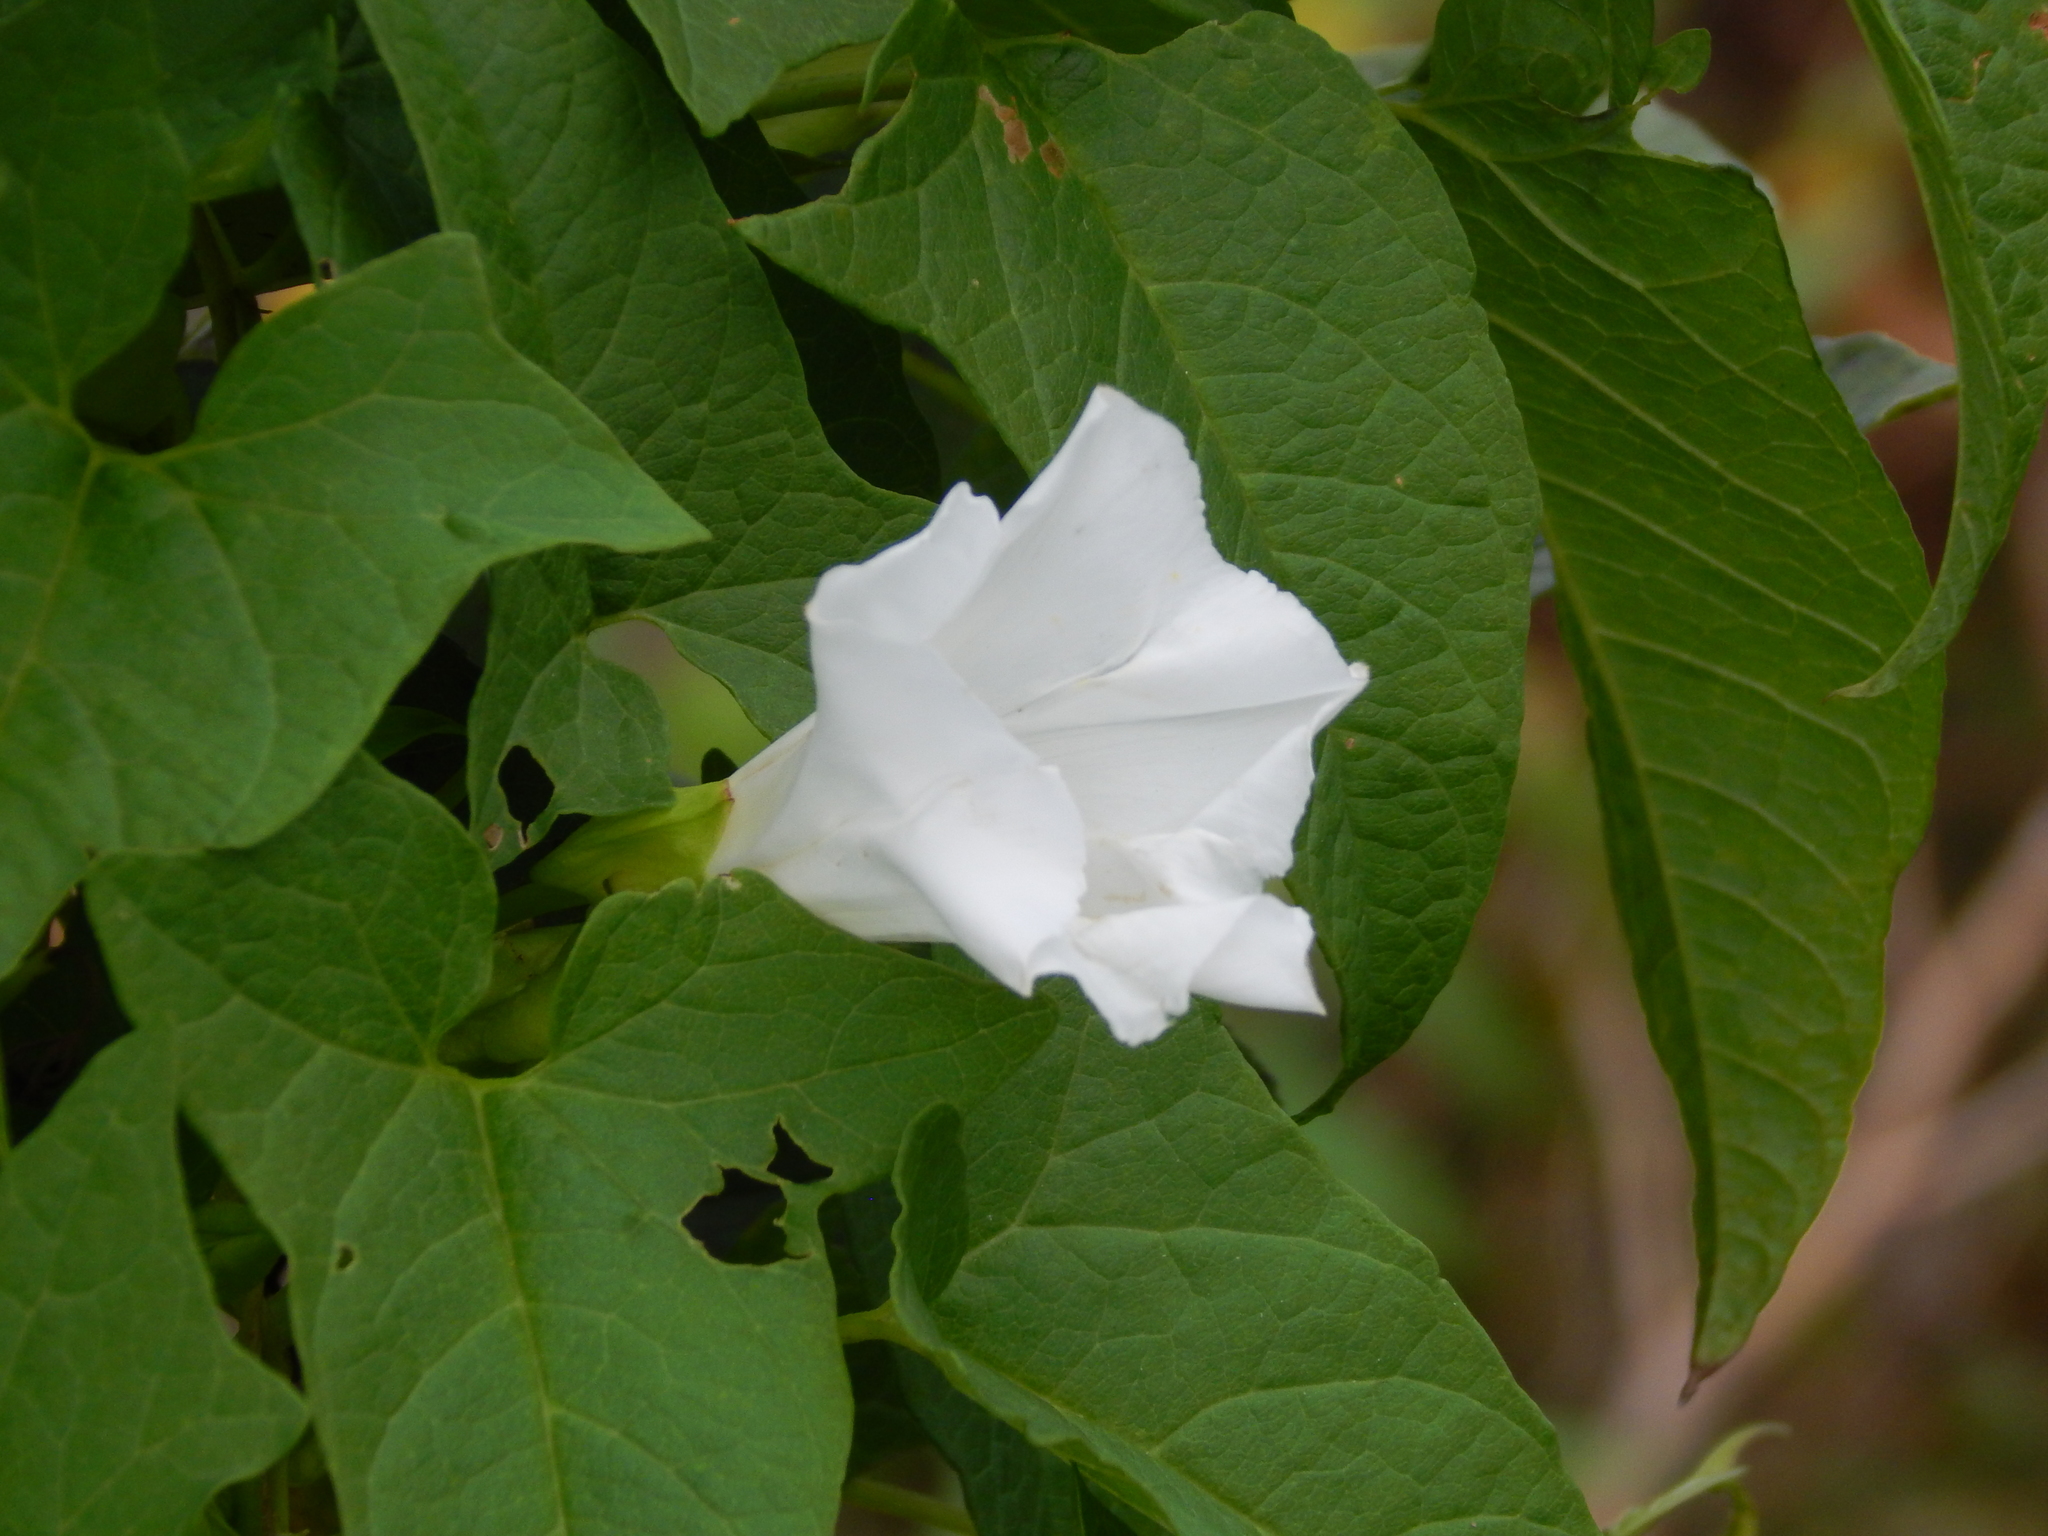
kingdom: Plantae
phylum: Tracheophyta
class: Magnoliopsida
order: Solanales
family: Convolvulaceae
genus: Calystegia
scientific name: Calystegia sepium
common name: Hedge bindweed
